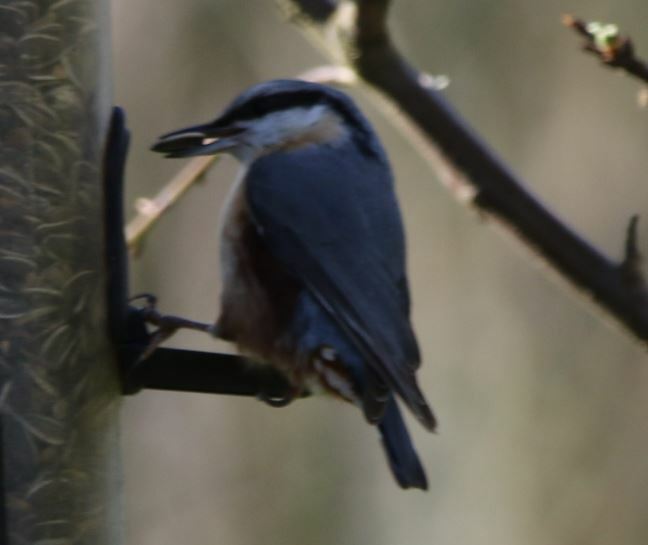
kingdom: Animalia
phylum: Chordata
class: Aves
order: Passeriformes
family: Sittidae
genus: Sitta
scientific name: Sitta europaea
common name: Eurasian nuthatch
